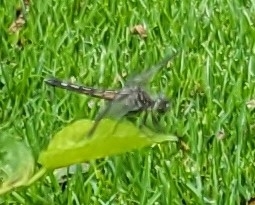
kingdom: Animalia
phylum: Arthropoda
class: Insecta
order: Odonata
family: Libellulidae
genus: Pachydiplax
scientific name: Pachydiplax longipennis
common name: Blue dasher
